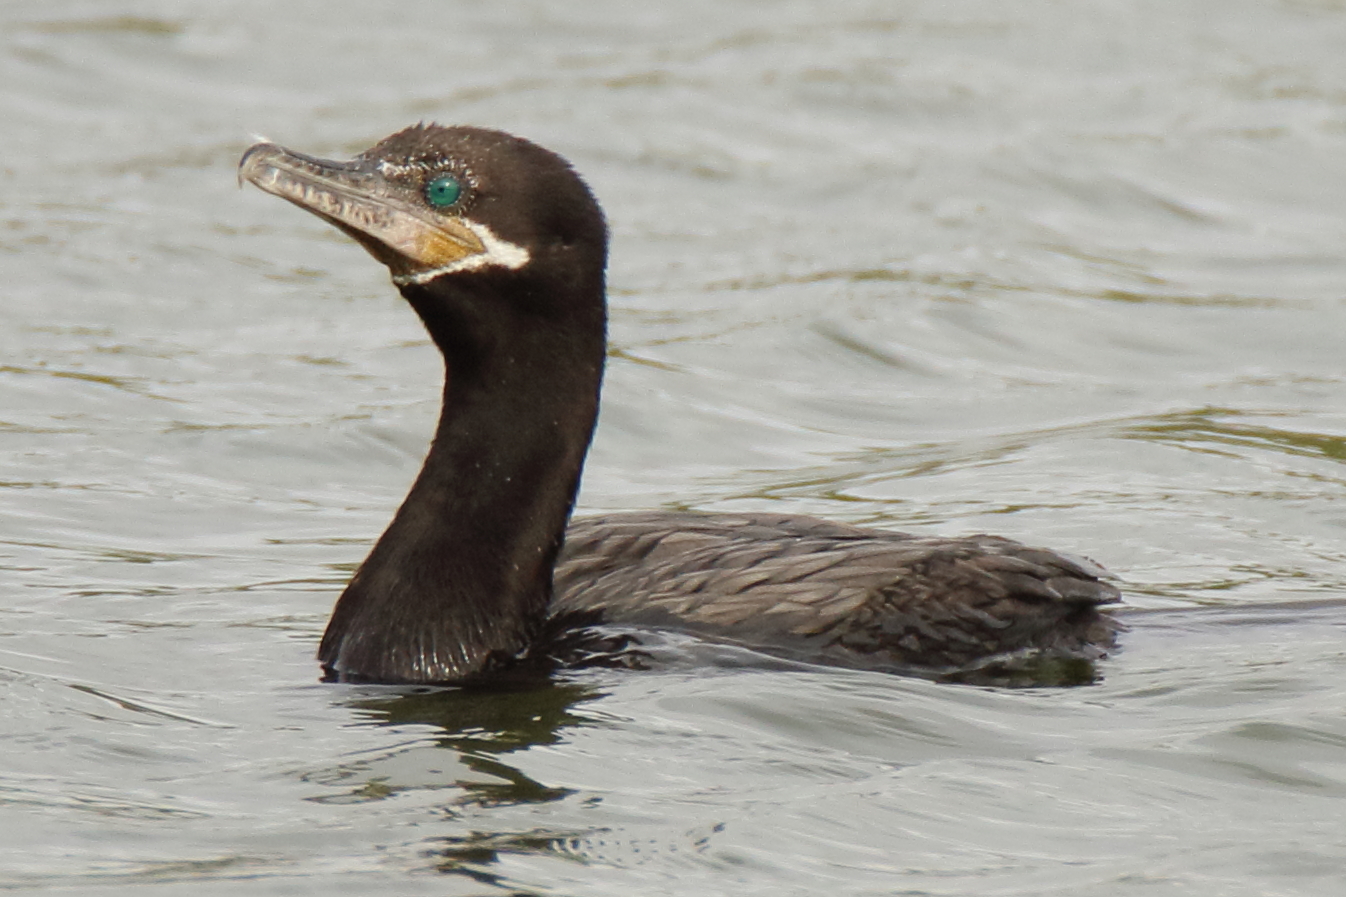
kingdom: Animalia
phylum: Chordata
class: Aves
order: Suliformes
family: Phalacrocoracidae
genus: Phalacrocorax
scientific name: Phalacrocorax brasilianus
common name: Neotropic cormorant
